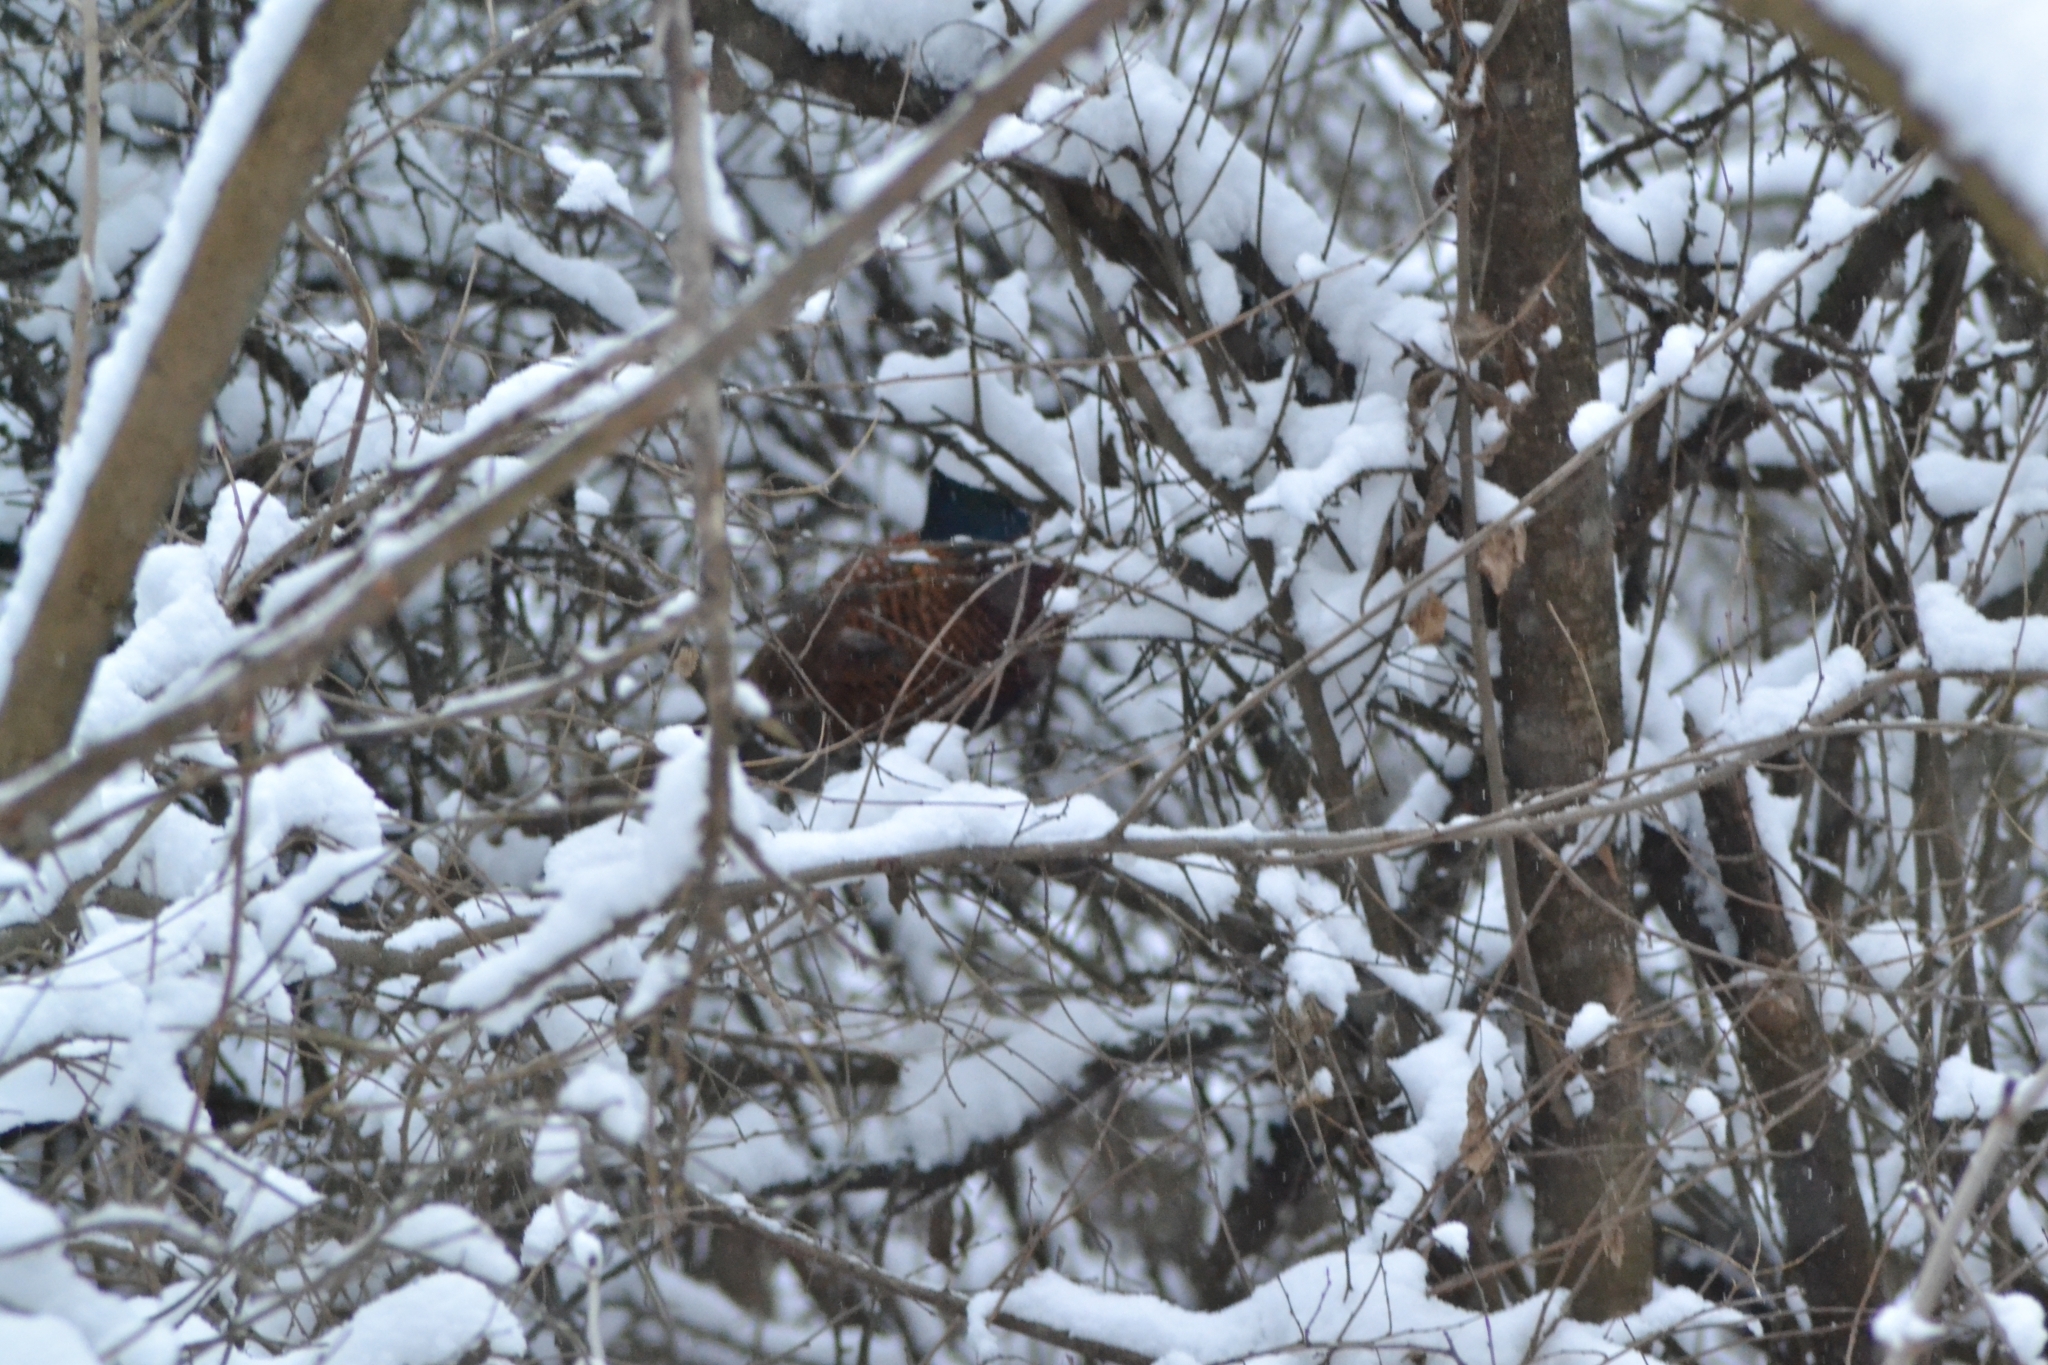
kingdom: Animalia
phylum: Chordata
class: Aves
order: Galliformes
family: Phasianidae
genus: Phasianus
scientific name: Phasianus colchicus
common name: Common pheasant
